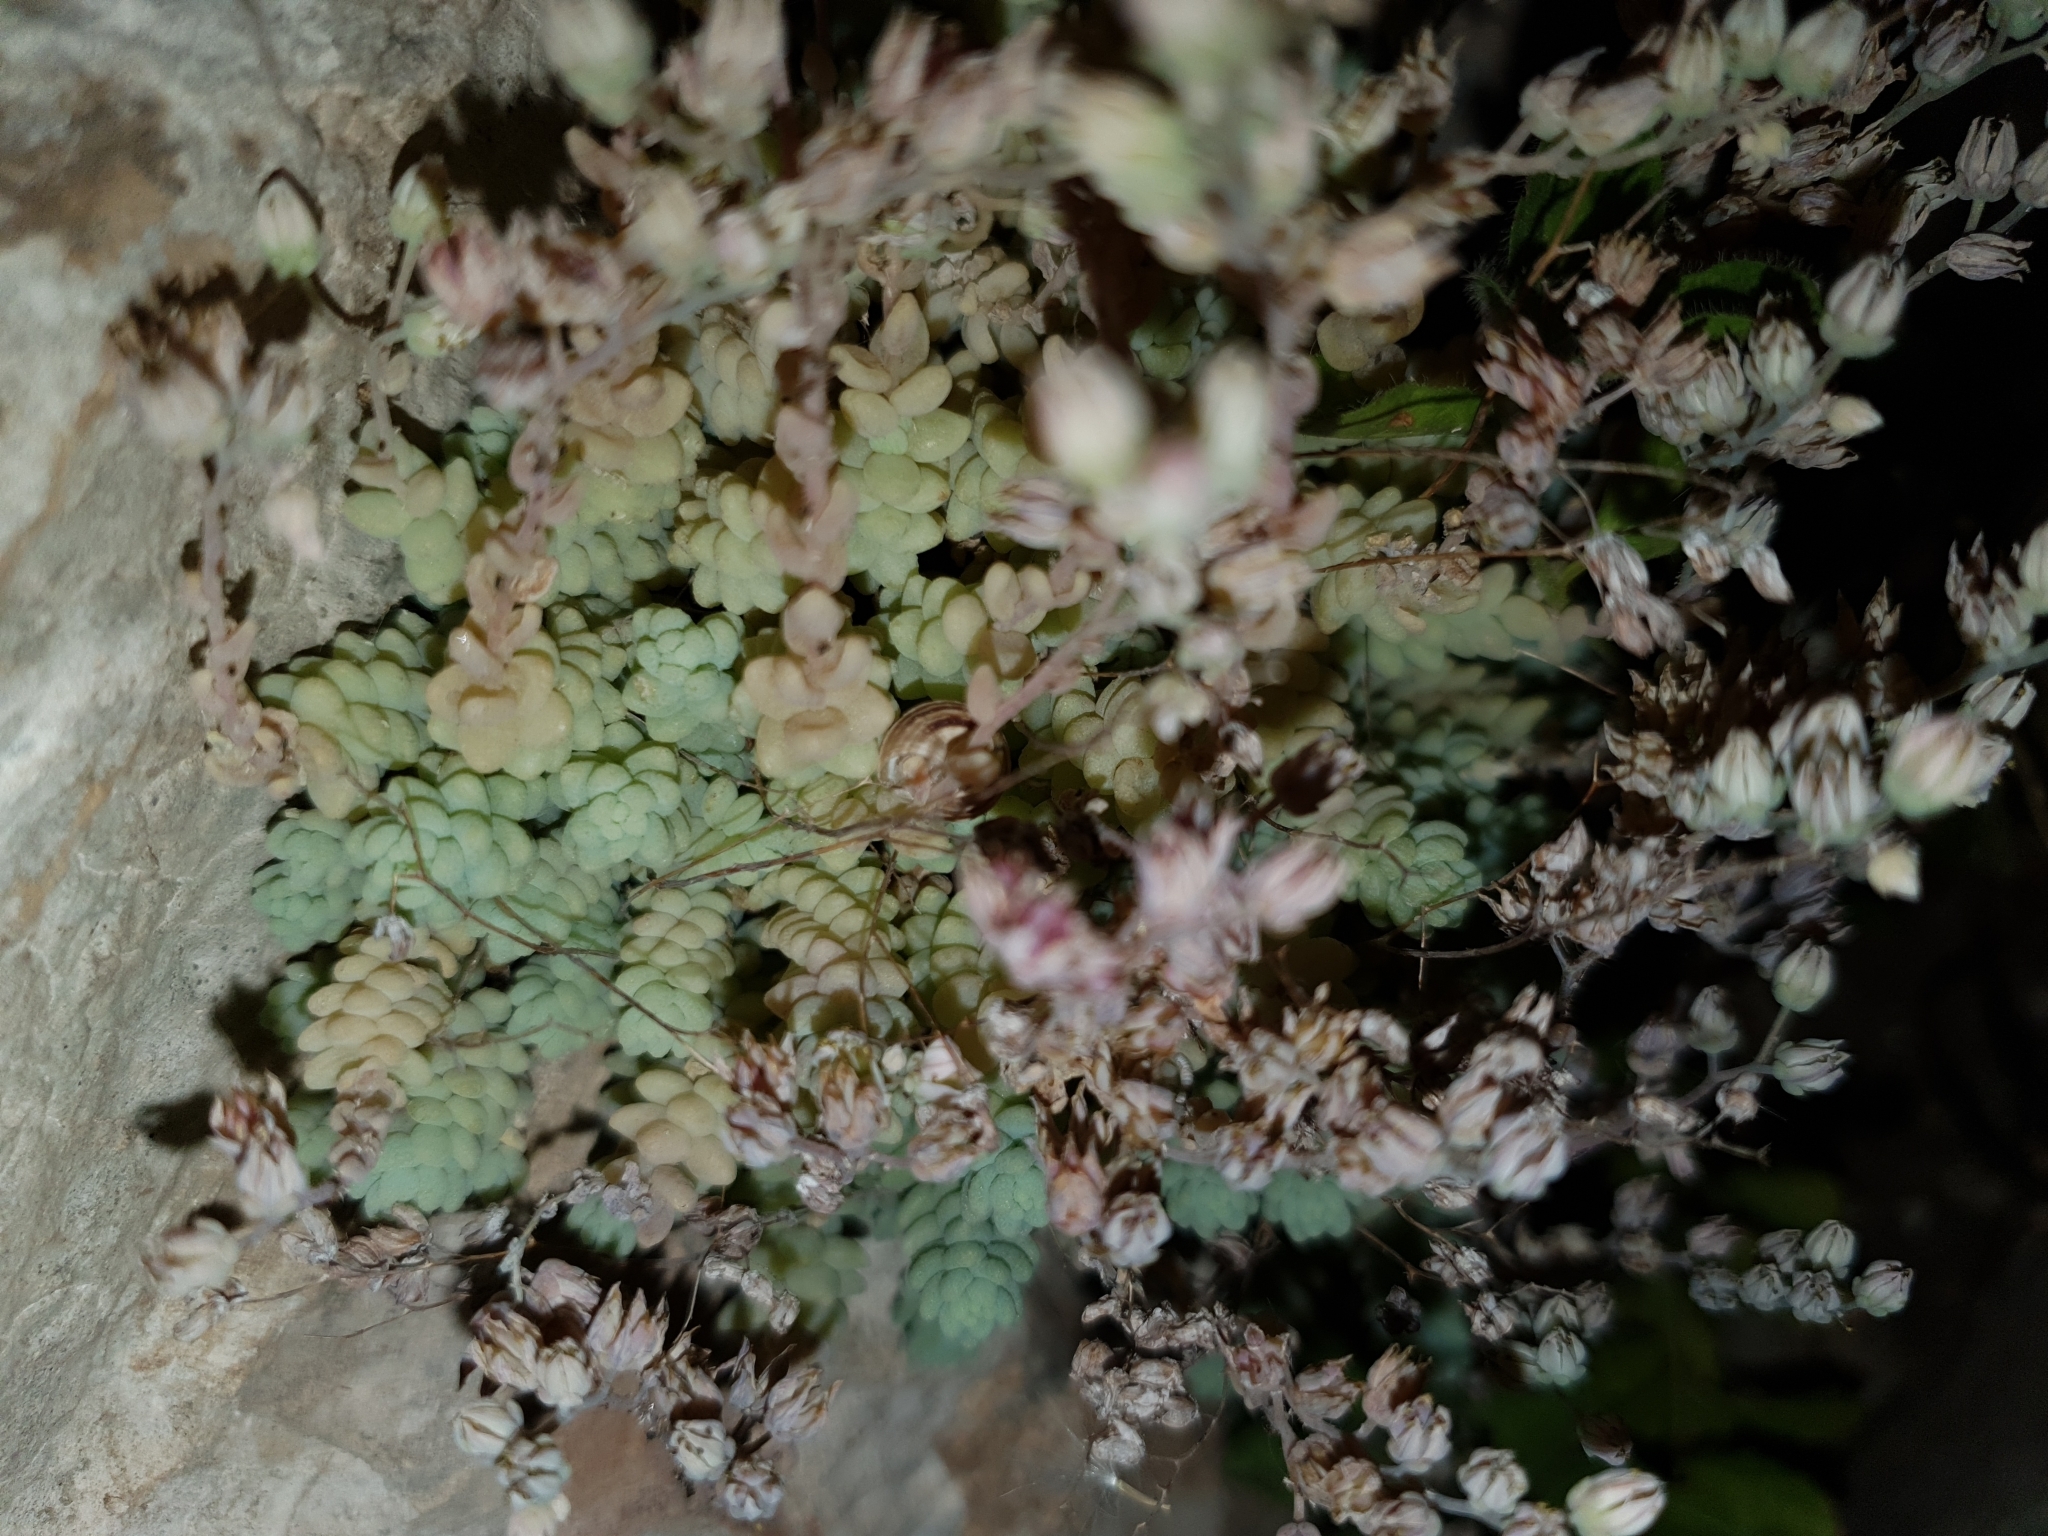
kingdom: Plantae
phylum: Tracheophyta
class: Magnoliopsida
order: Saxifragales
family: Crassulaceae
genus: Sedum
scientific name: Sedum dasyphyllum
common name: Thick-leaf stonecrop
